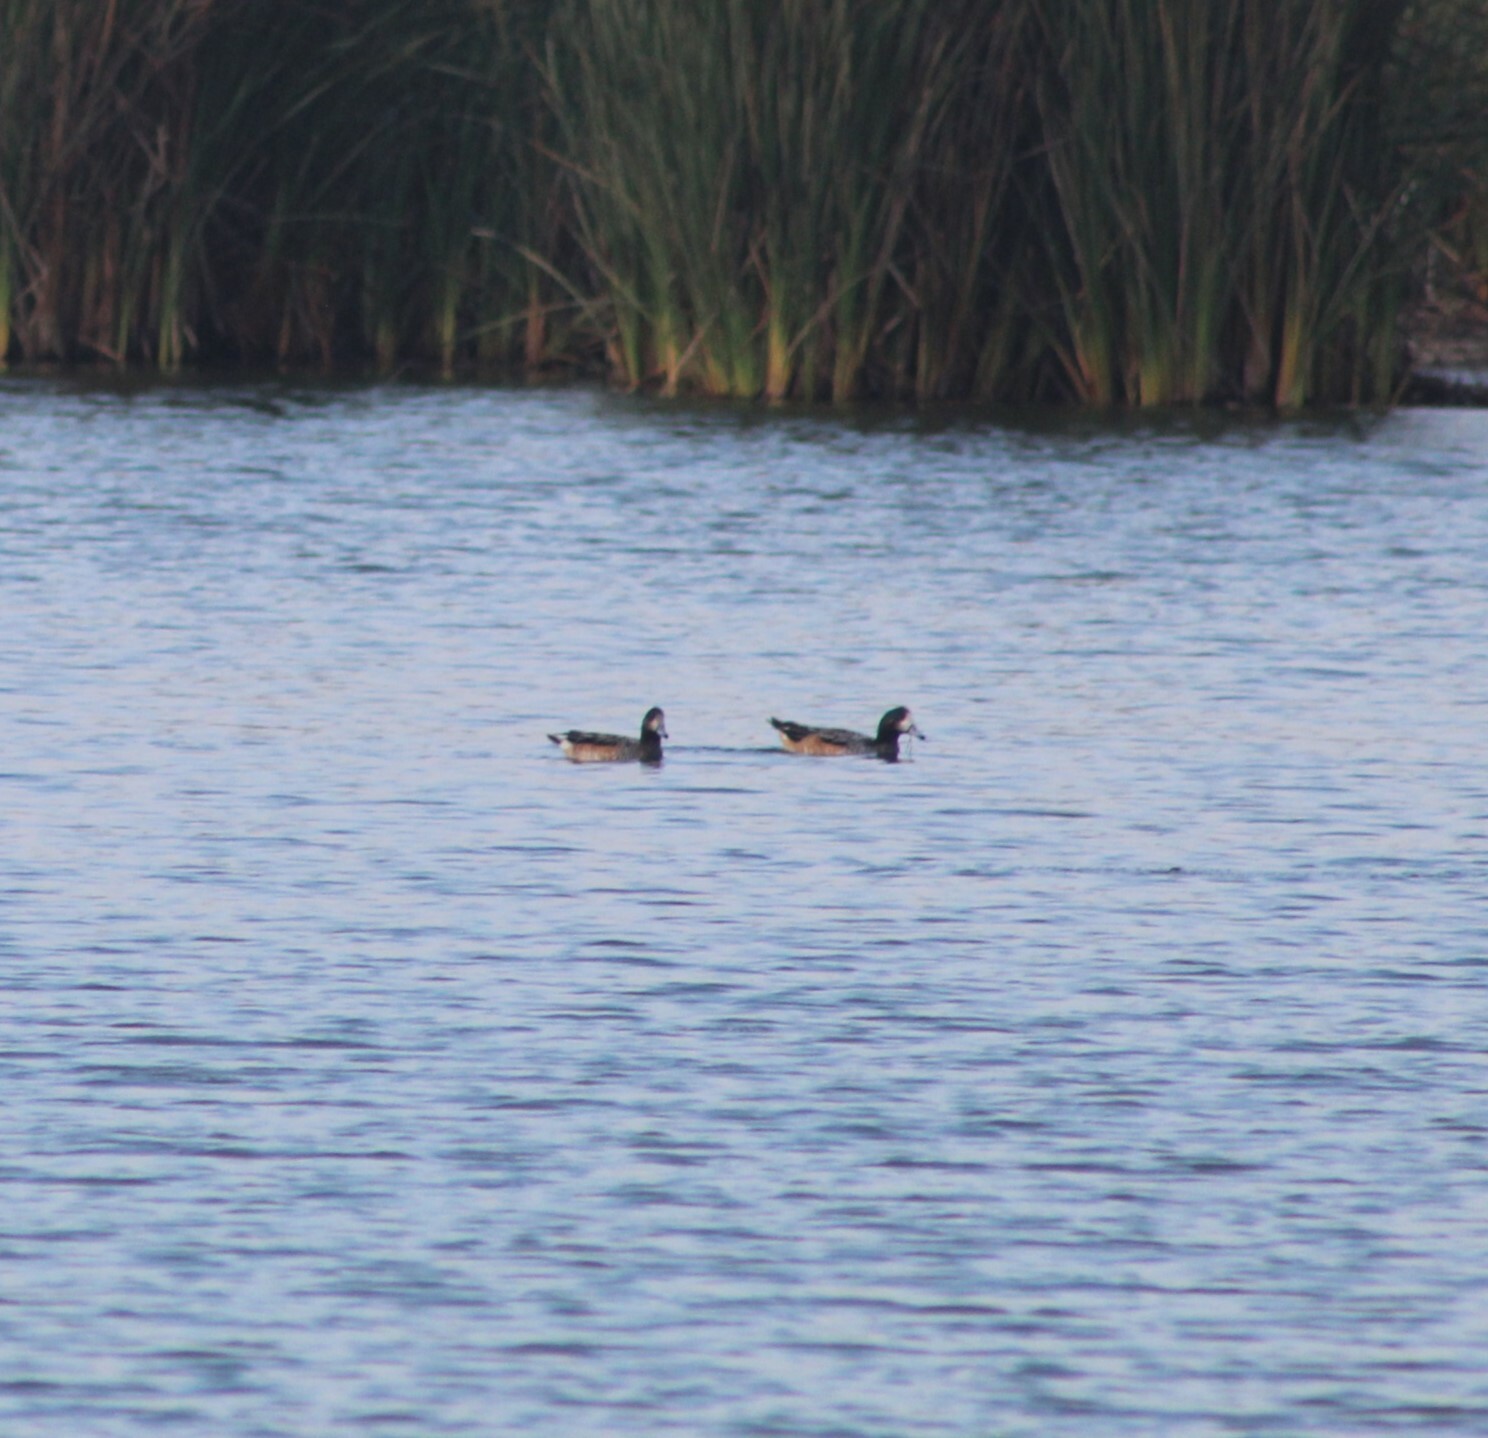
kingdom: Animalia
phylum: Chordata
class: Aves
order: Anseriformes
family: Anatidae
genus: Mareca
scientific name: Mareca sibilatrix
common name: Chiloe wigeon
